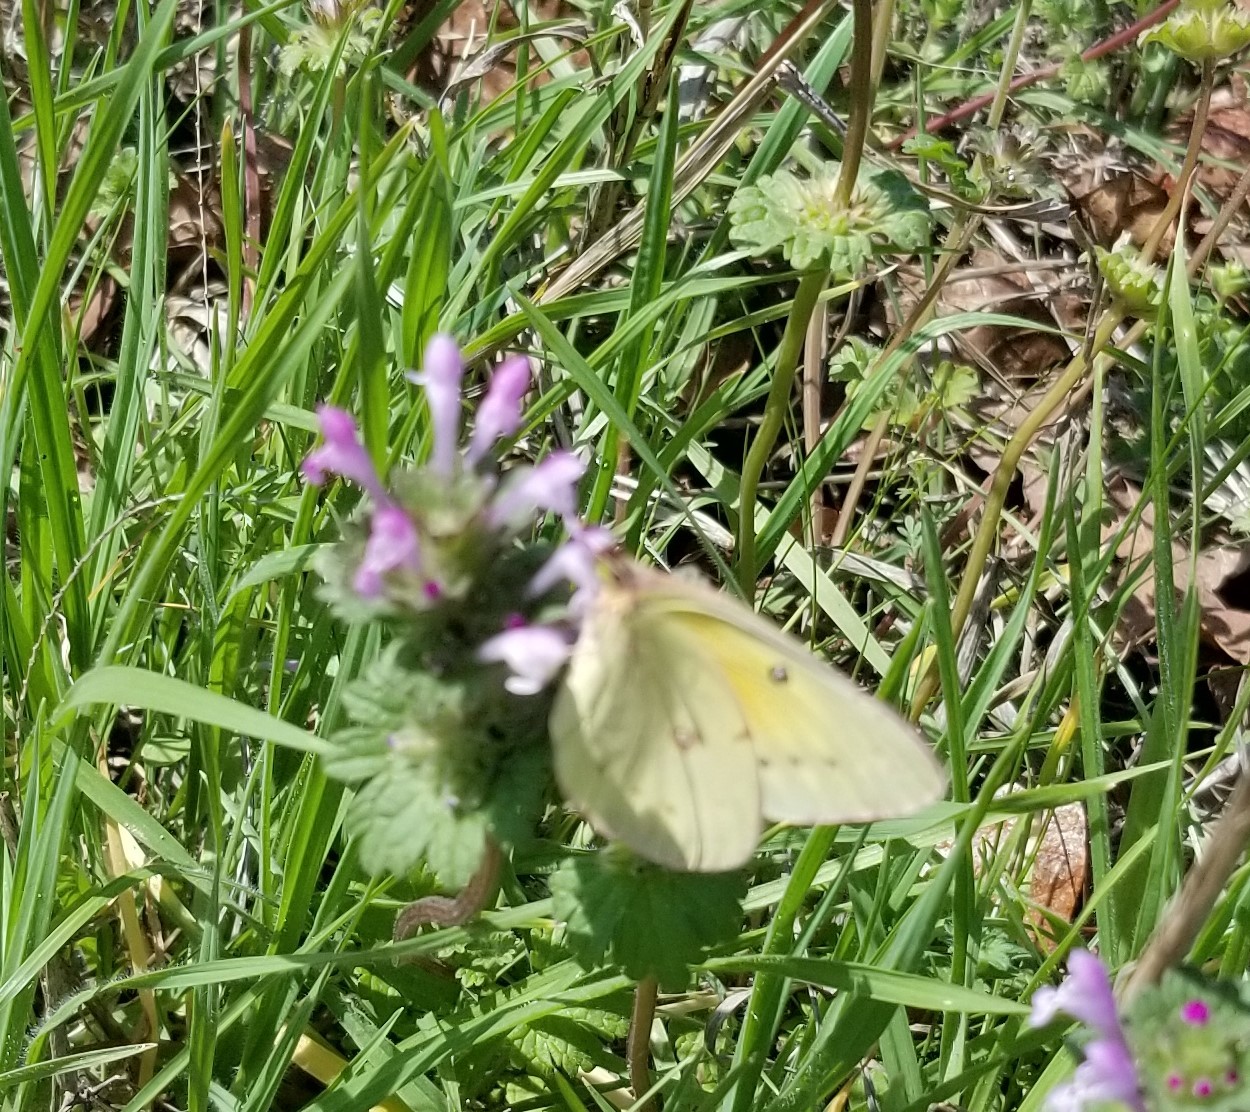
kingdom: Animalia
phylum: Arthropoda
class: Insecta
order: Lepidoptera
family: Pieridae
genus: Colias
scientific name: Colias eurytheme
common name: Alfalfa butterfly
